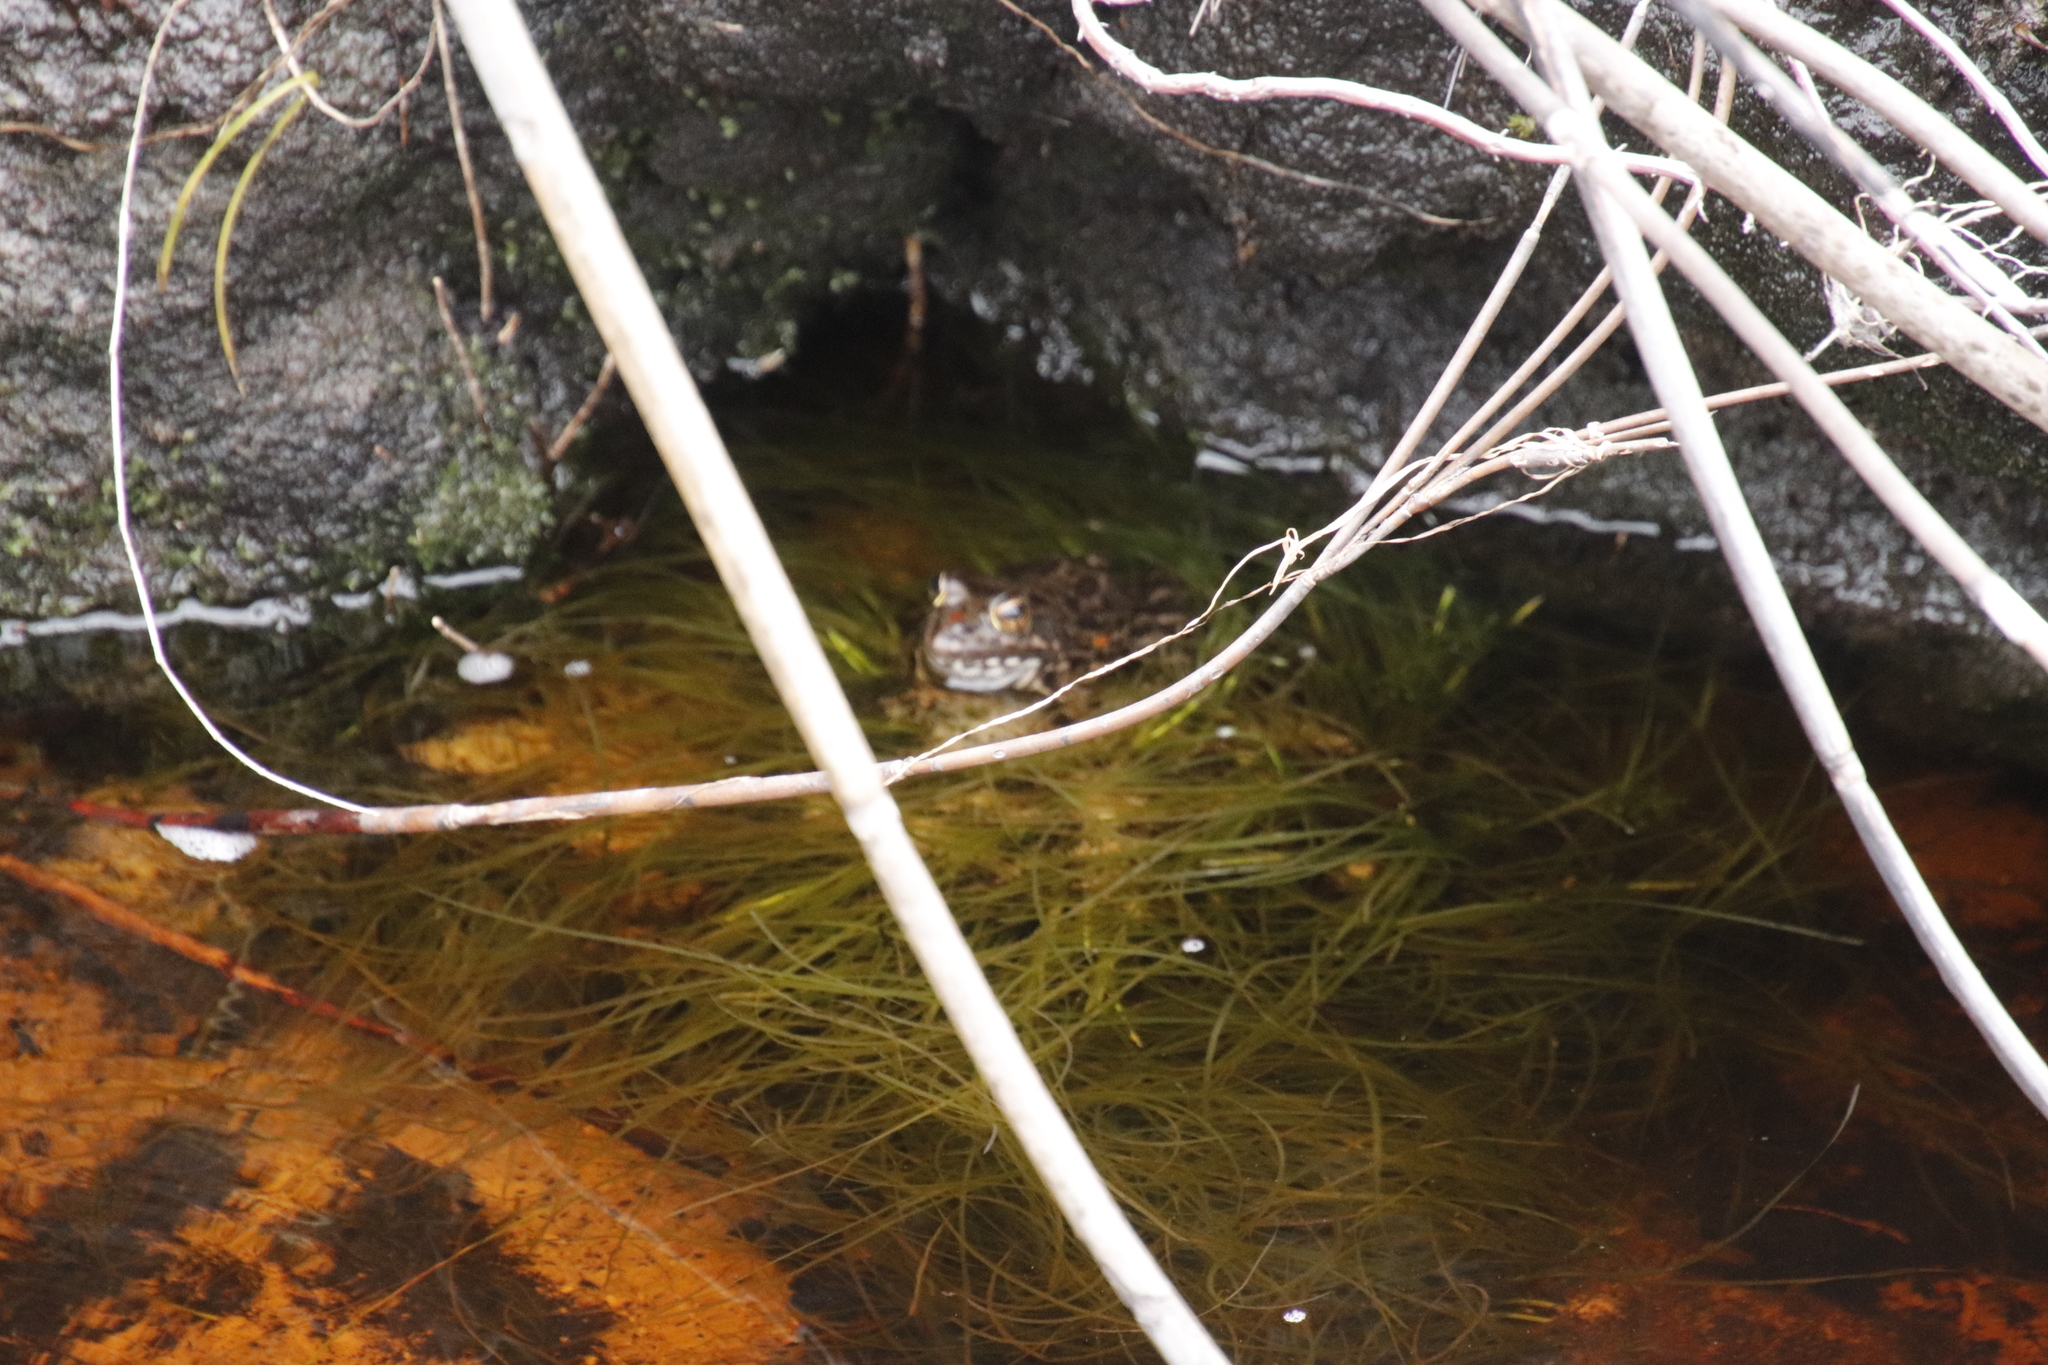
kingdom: Animalia
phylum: Chordata
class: Amphibia
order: Anura
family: Pyxicephalidae
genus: Amietia
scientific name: Amietia fuscigula
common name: Cape rana
